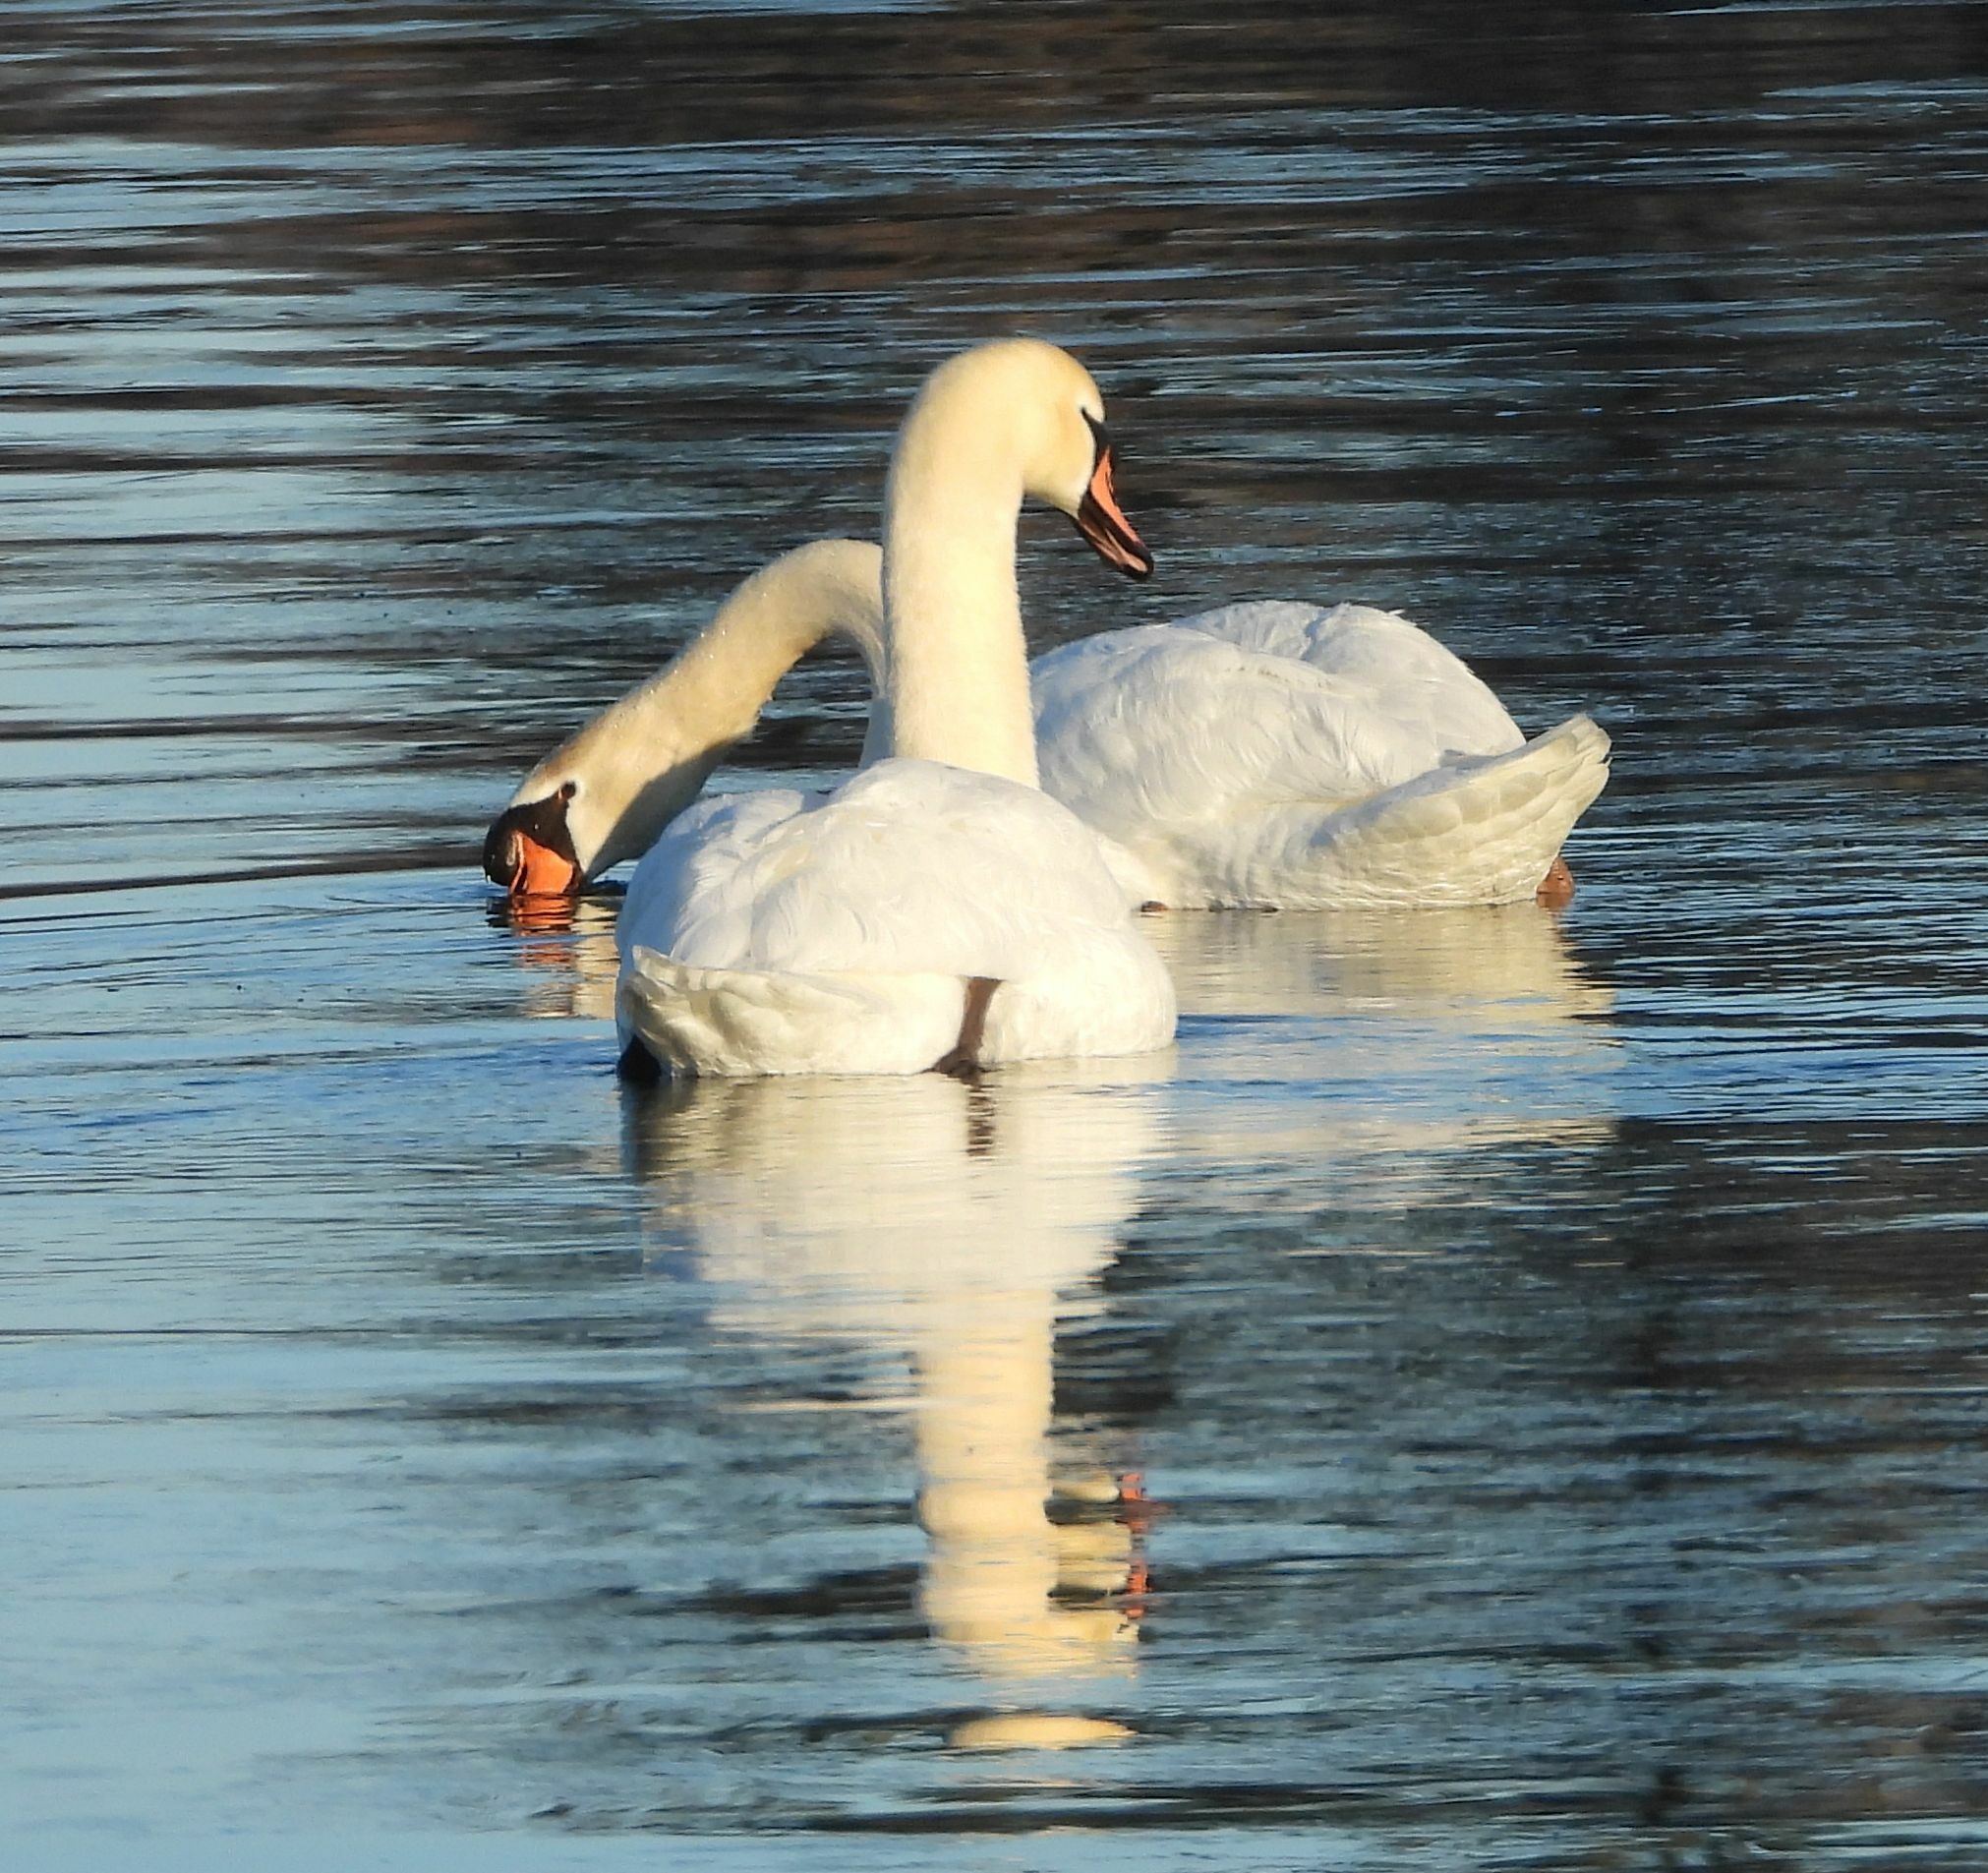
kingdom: Animalia
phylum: Chordata
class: Aves
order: Anseriformes
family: Anatidae
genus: Cygnus
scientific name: Cygnus olor
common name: Mute swan
